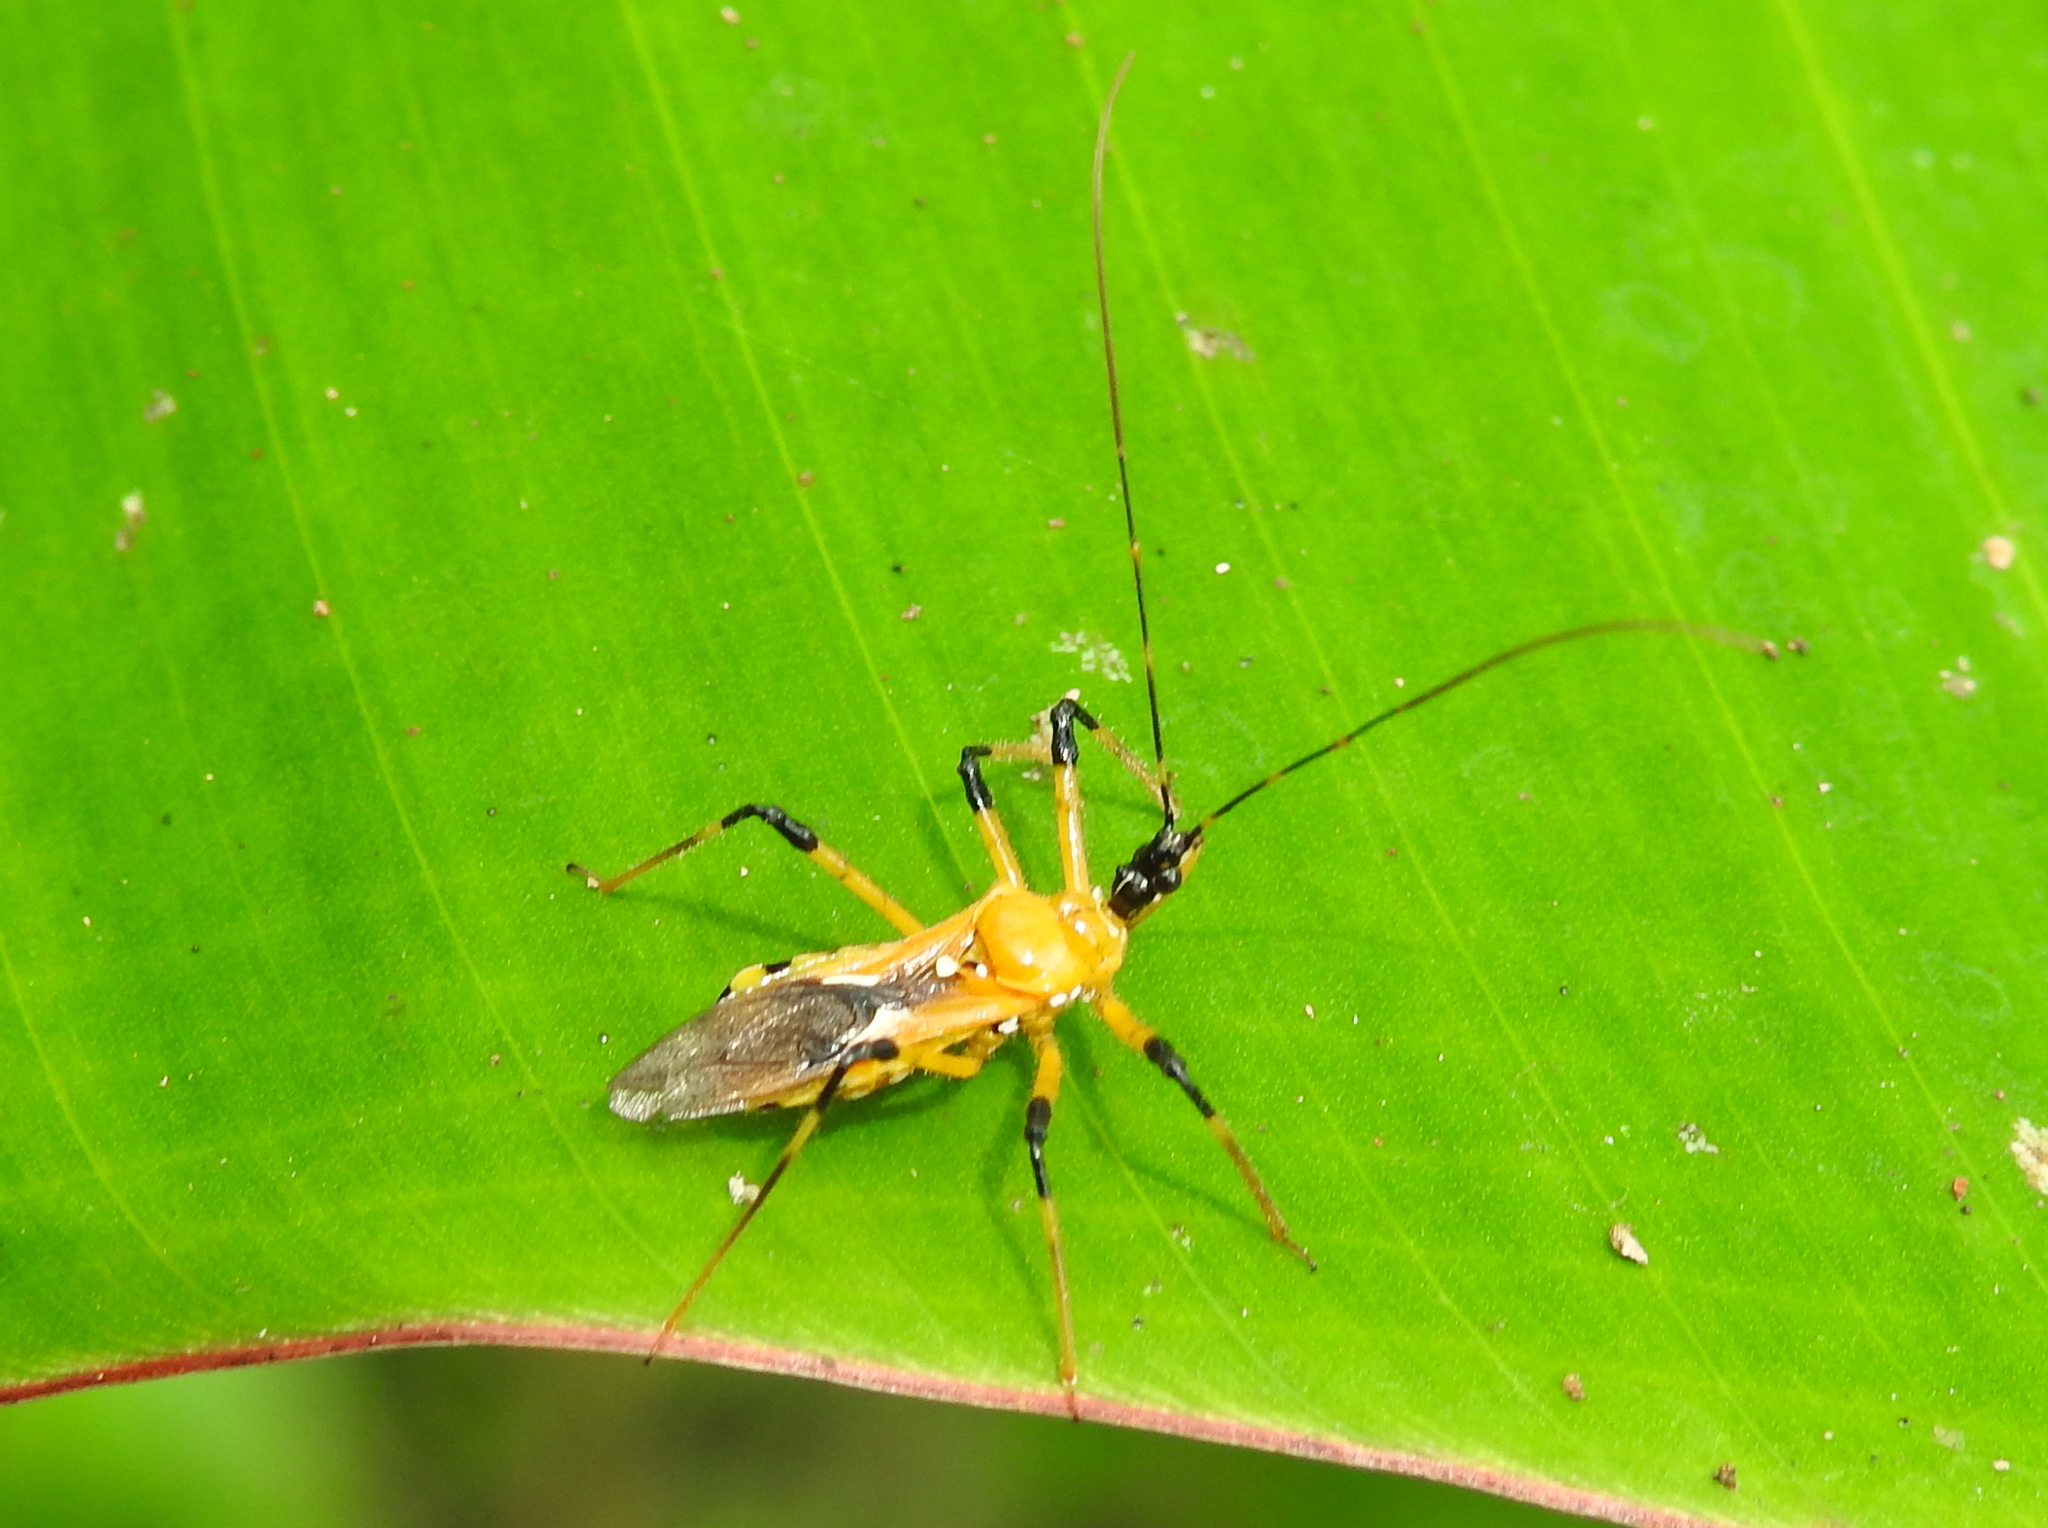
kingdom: Animalia
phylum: Arthropoda
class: Insecta
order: Hemiptera
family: Reduviidae
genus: Cosmolestes
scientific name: Cosmolestes picticeps
